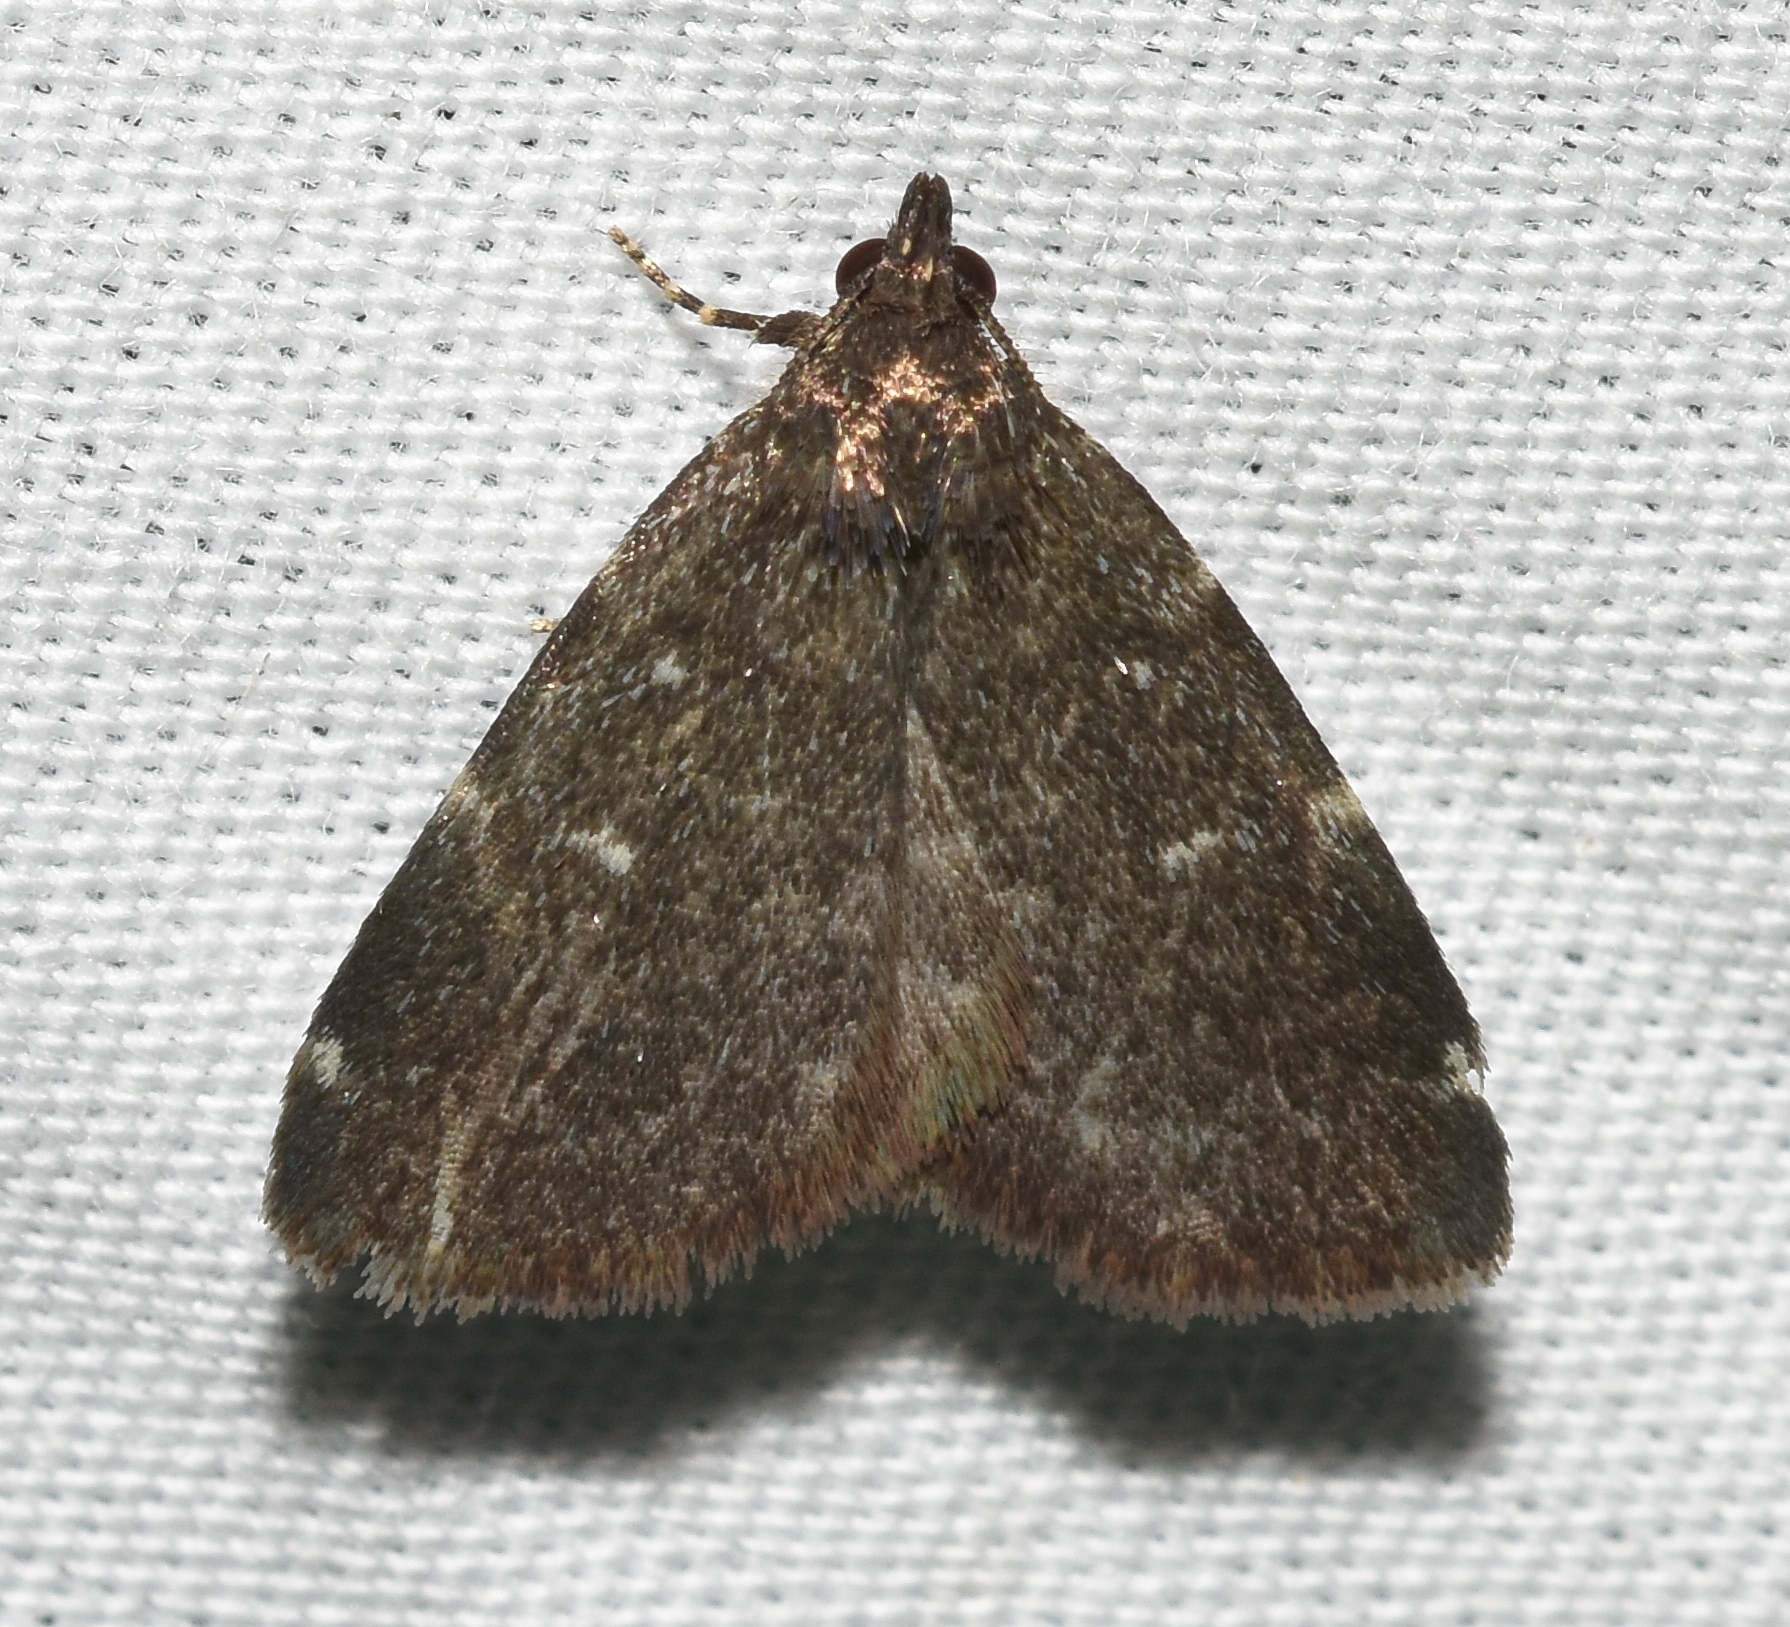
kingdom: Animalia
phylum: Arthropoda
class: Insecta
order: Lepidoptera
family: Erebidae
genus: Idia
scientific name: Idia rotundalis
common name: Rotund idia moth
